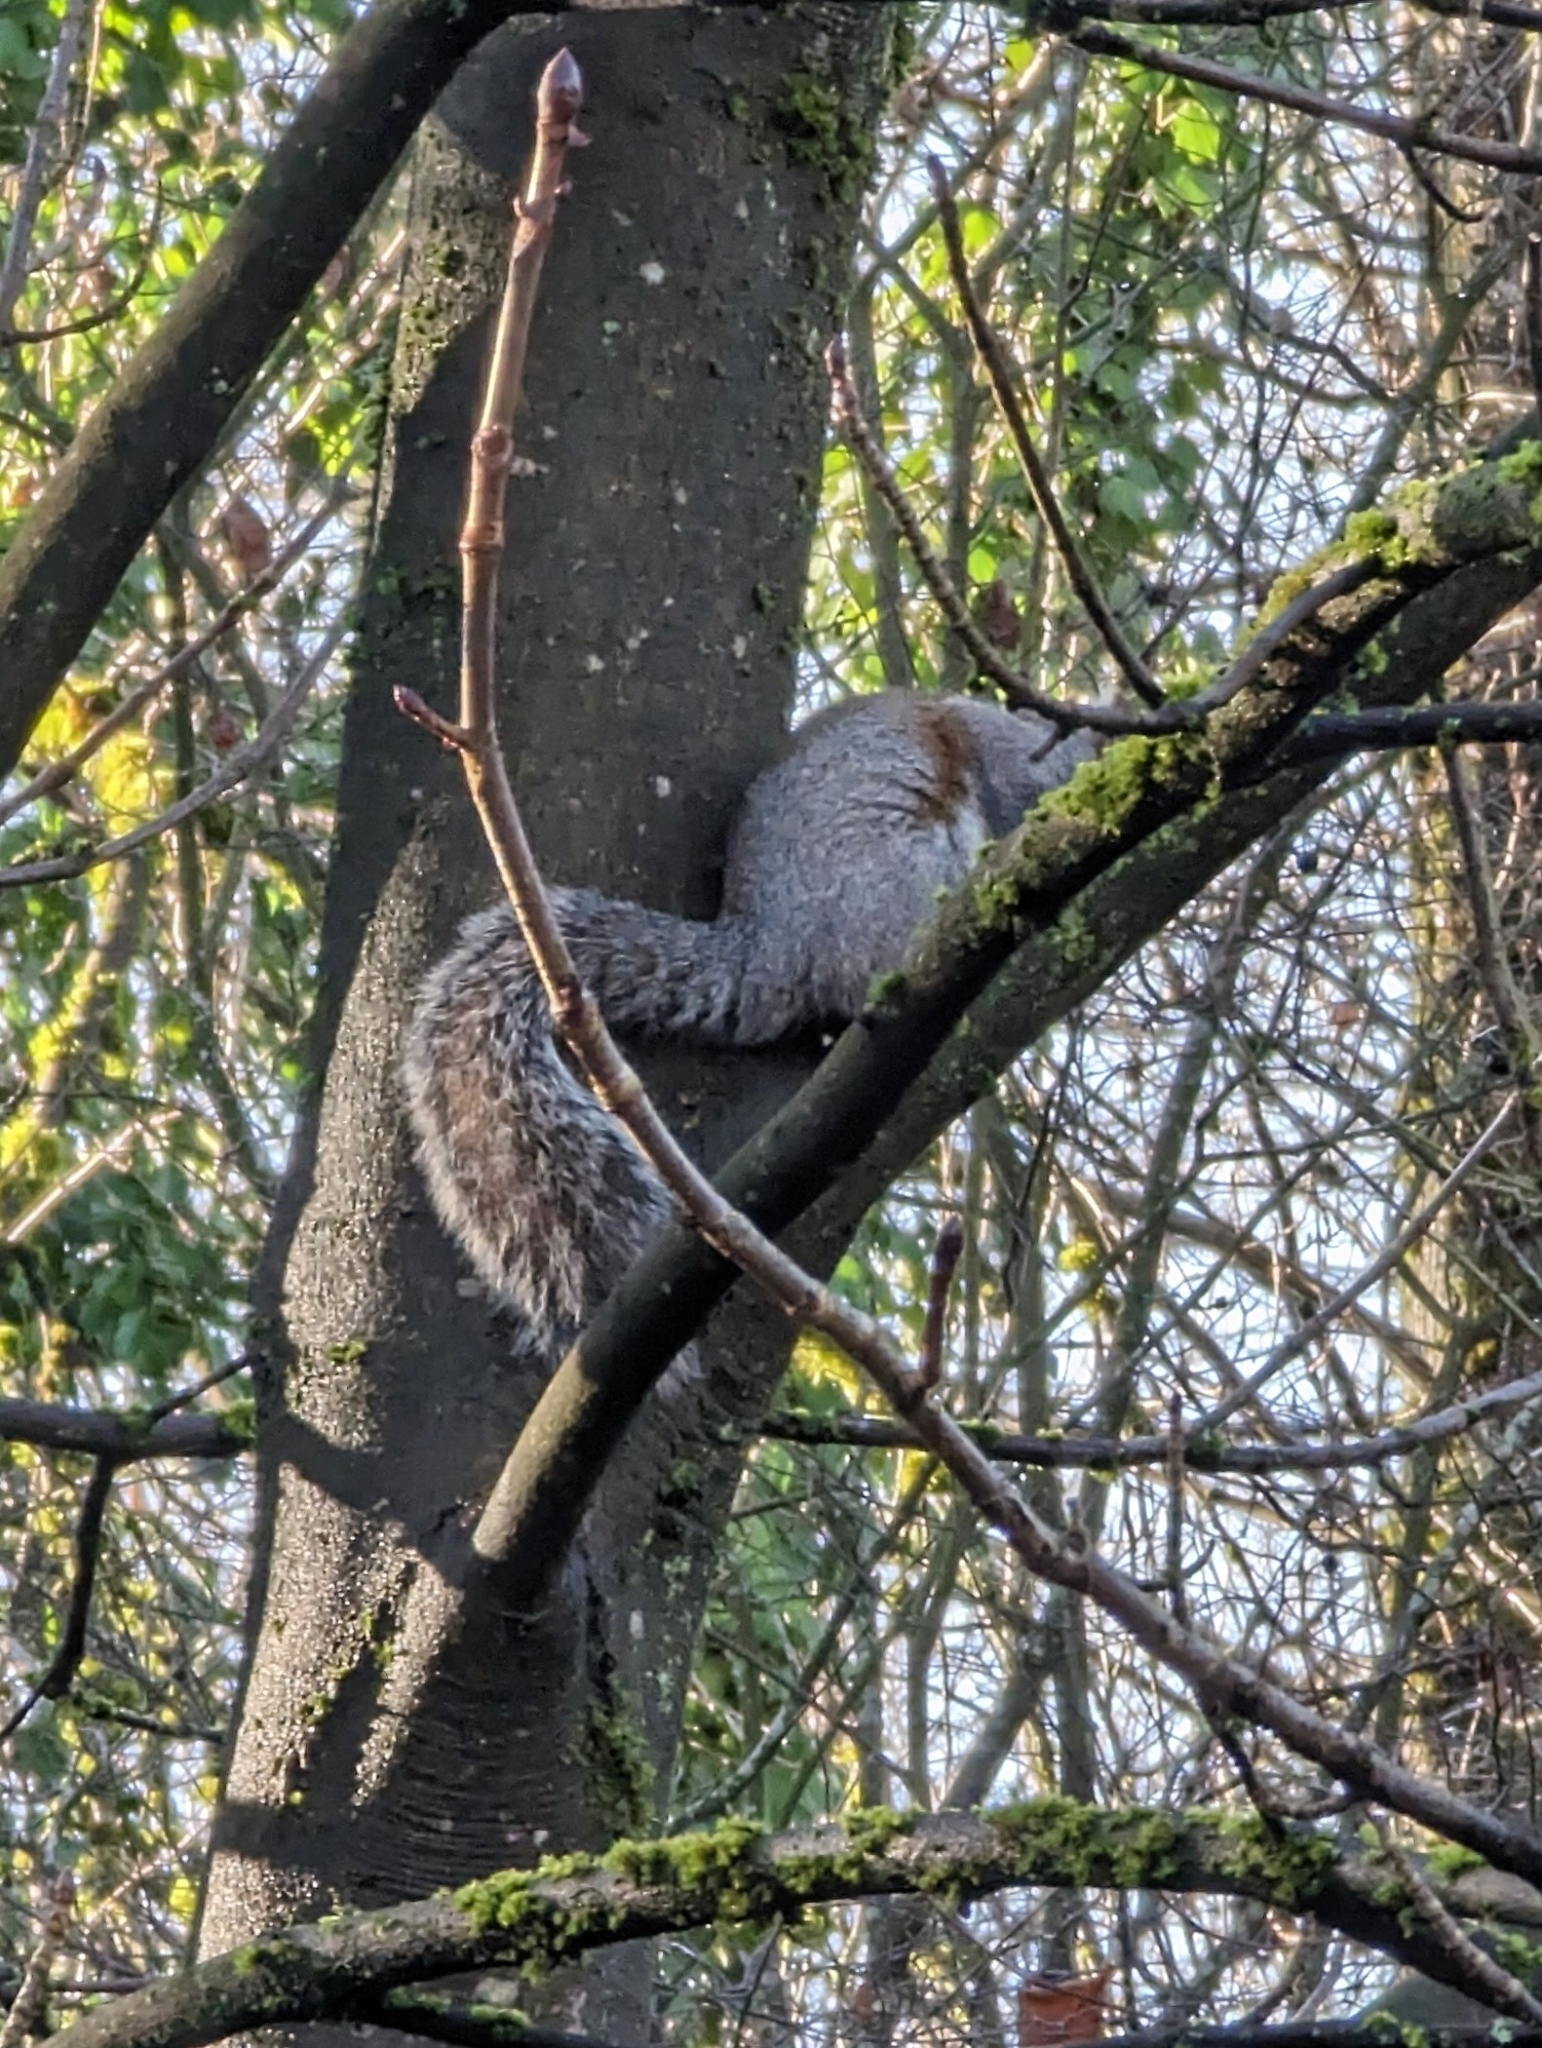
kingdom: Animalia
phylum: Chordata
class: Mammalia
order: Rodentia
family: Sciuridae
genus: Sciurus
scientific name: Sciurus carolinensis
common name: Eastern gray squirrel
